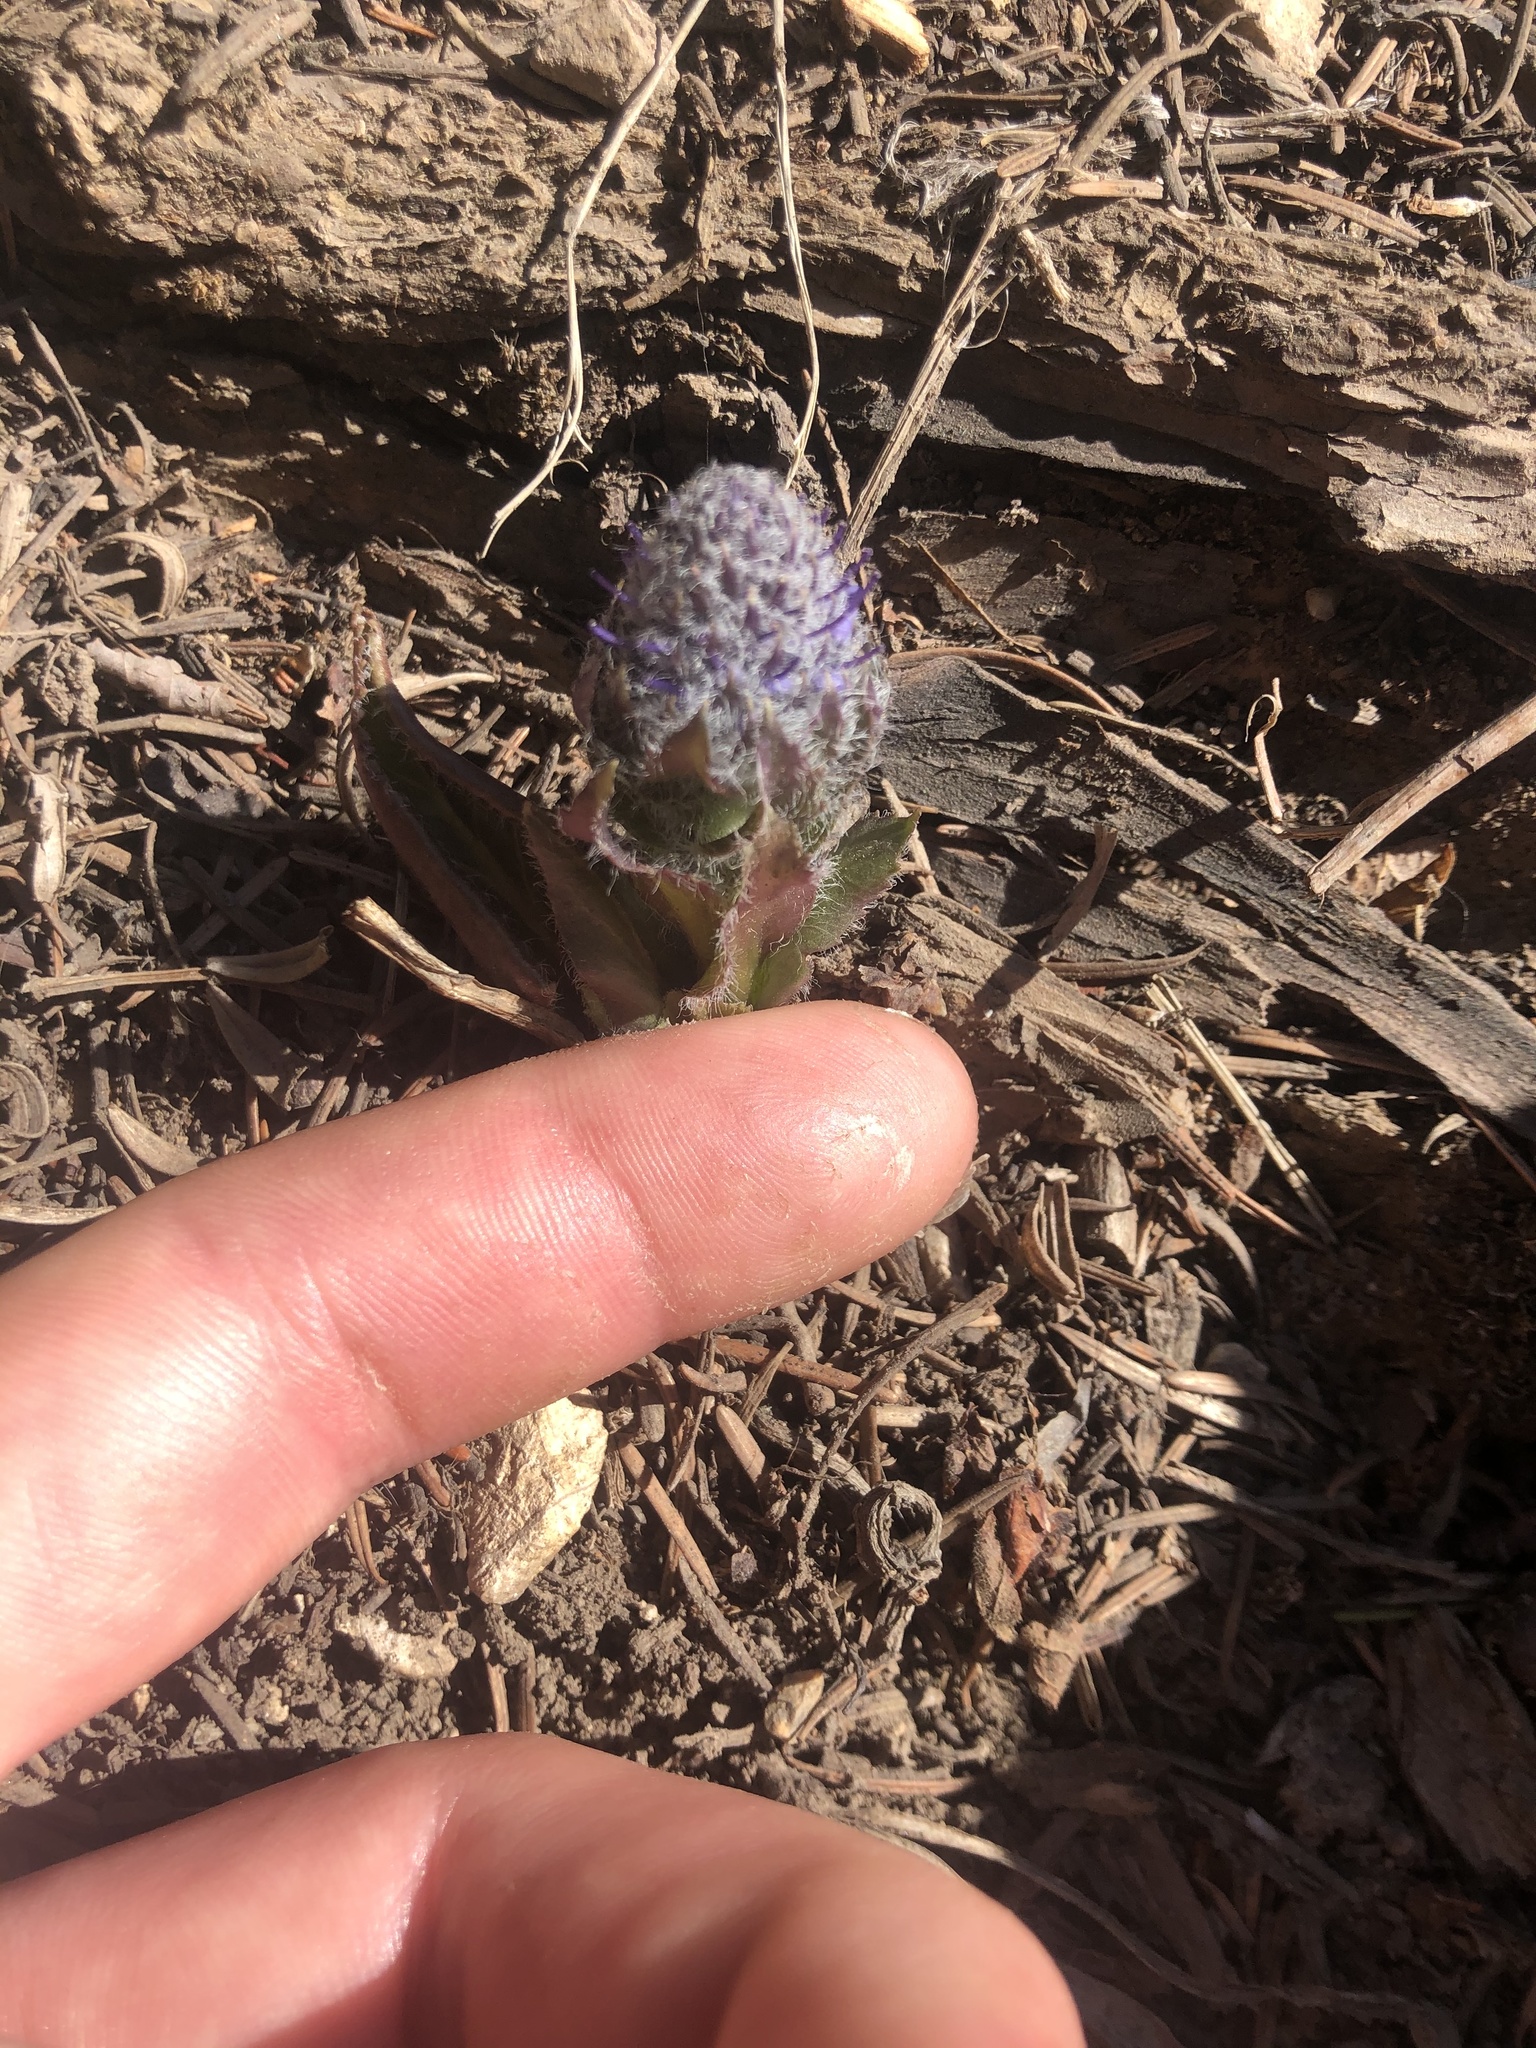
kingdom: Plantae
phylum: Tracheophyta
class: Magnoliopsida
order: Lamiales
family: Plantaginaceae
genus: Synthyris
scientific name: Synthyris wyomingensis
